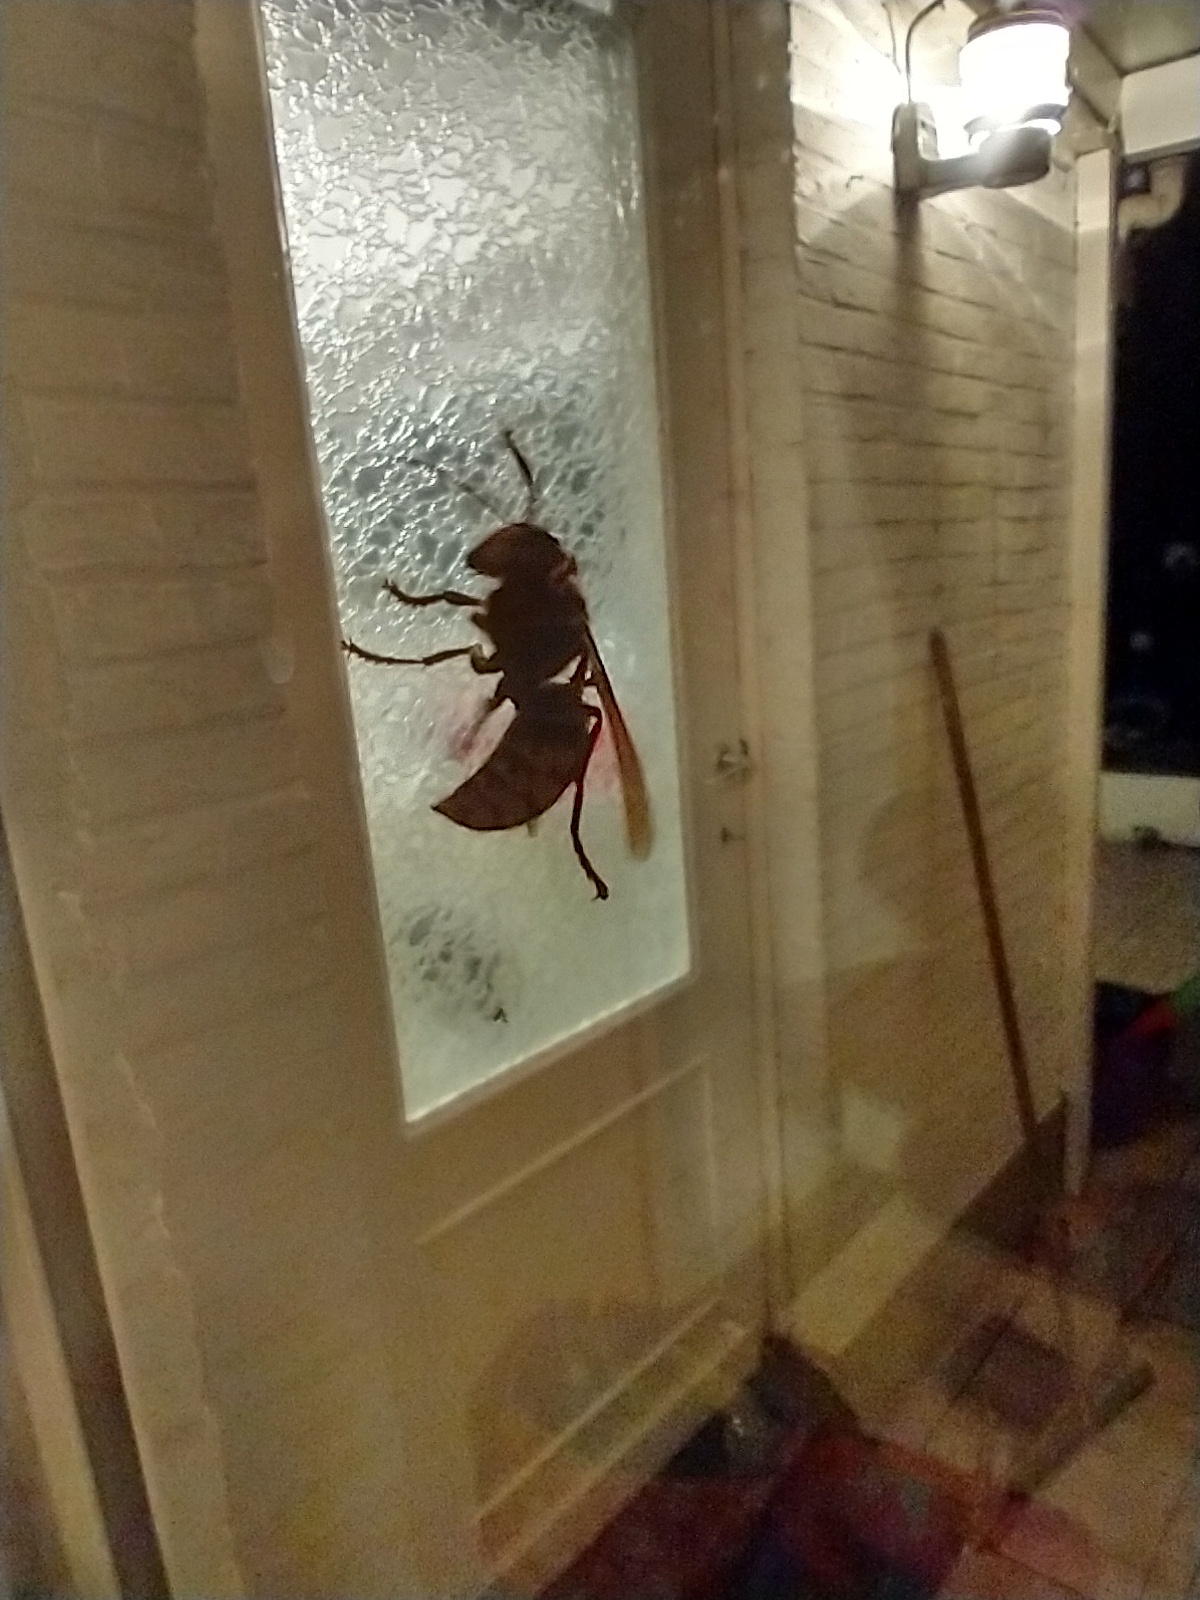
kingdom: Animalia
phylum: Arthropoda
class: Insecta
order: Hymenoptera
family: Vespidae
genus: Vespa
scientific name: Vespa crabro
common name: Hornet
